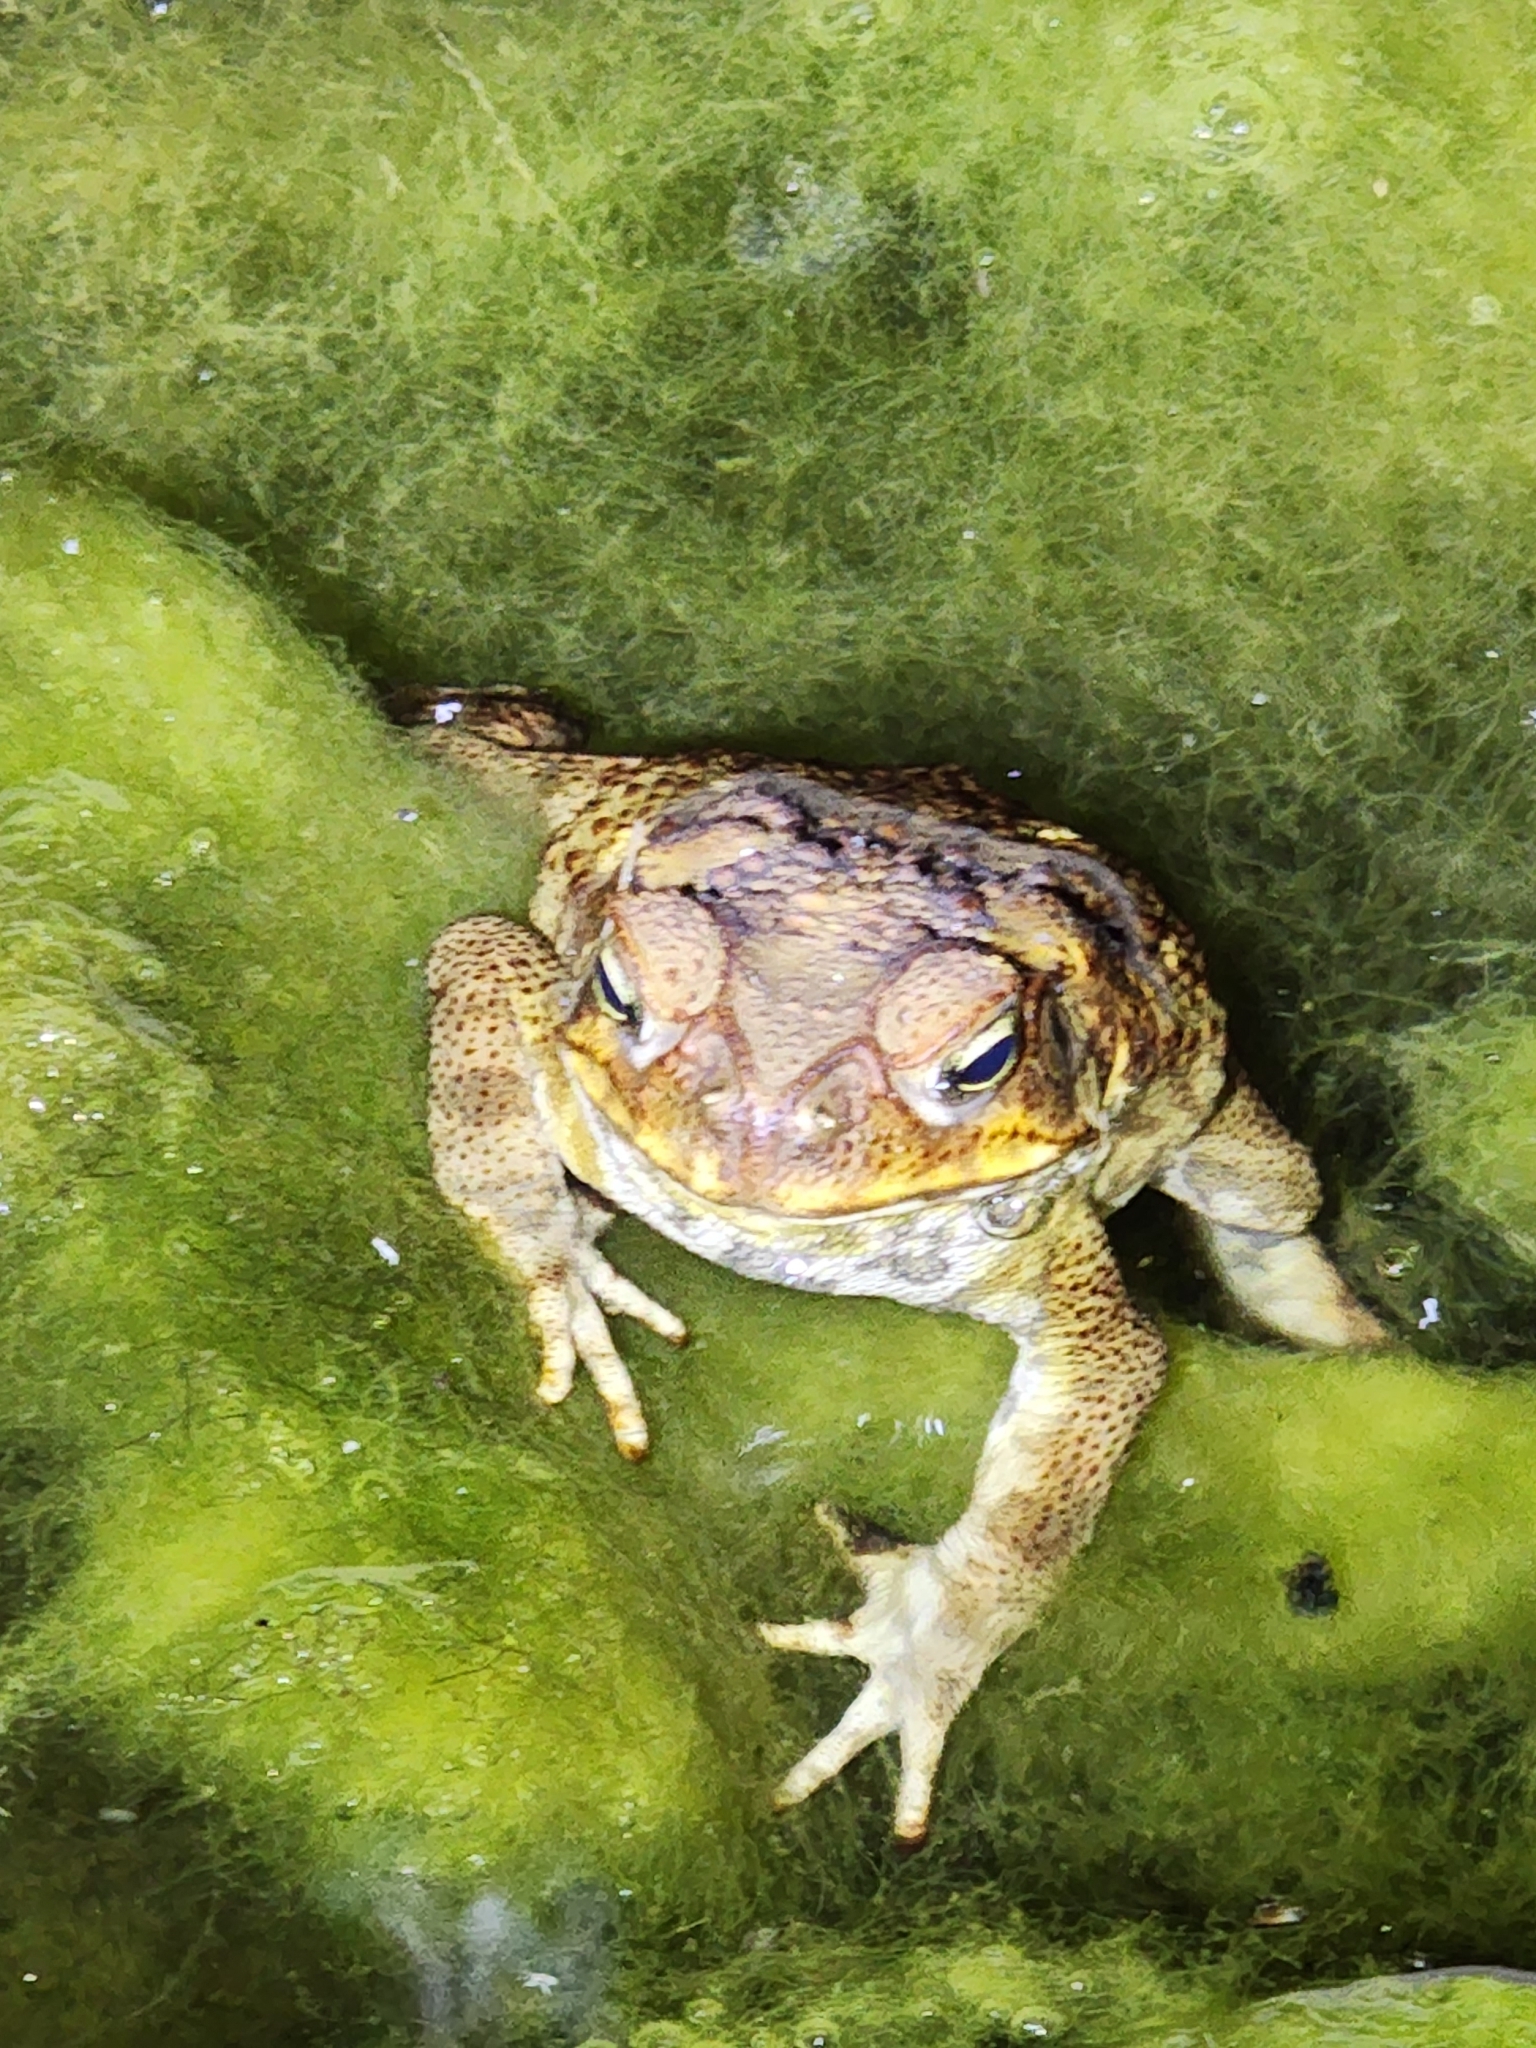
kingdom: Animalia
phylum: Chordata
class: Amphibia
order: Anura
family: Bufonidae
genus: Rhinella
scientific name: Rhinella marina
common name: Cane toad
